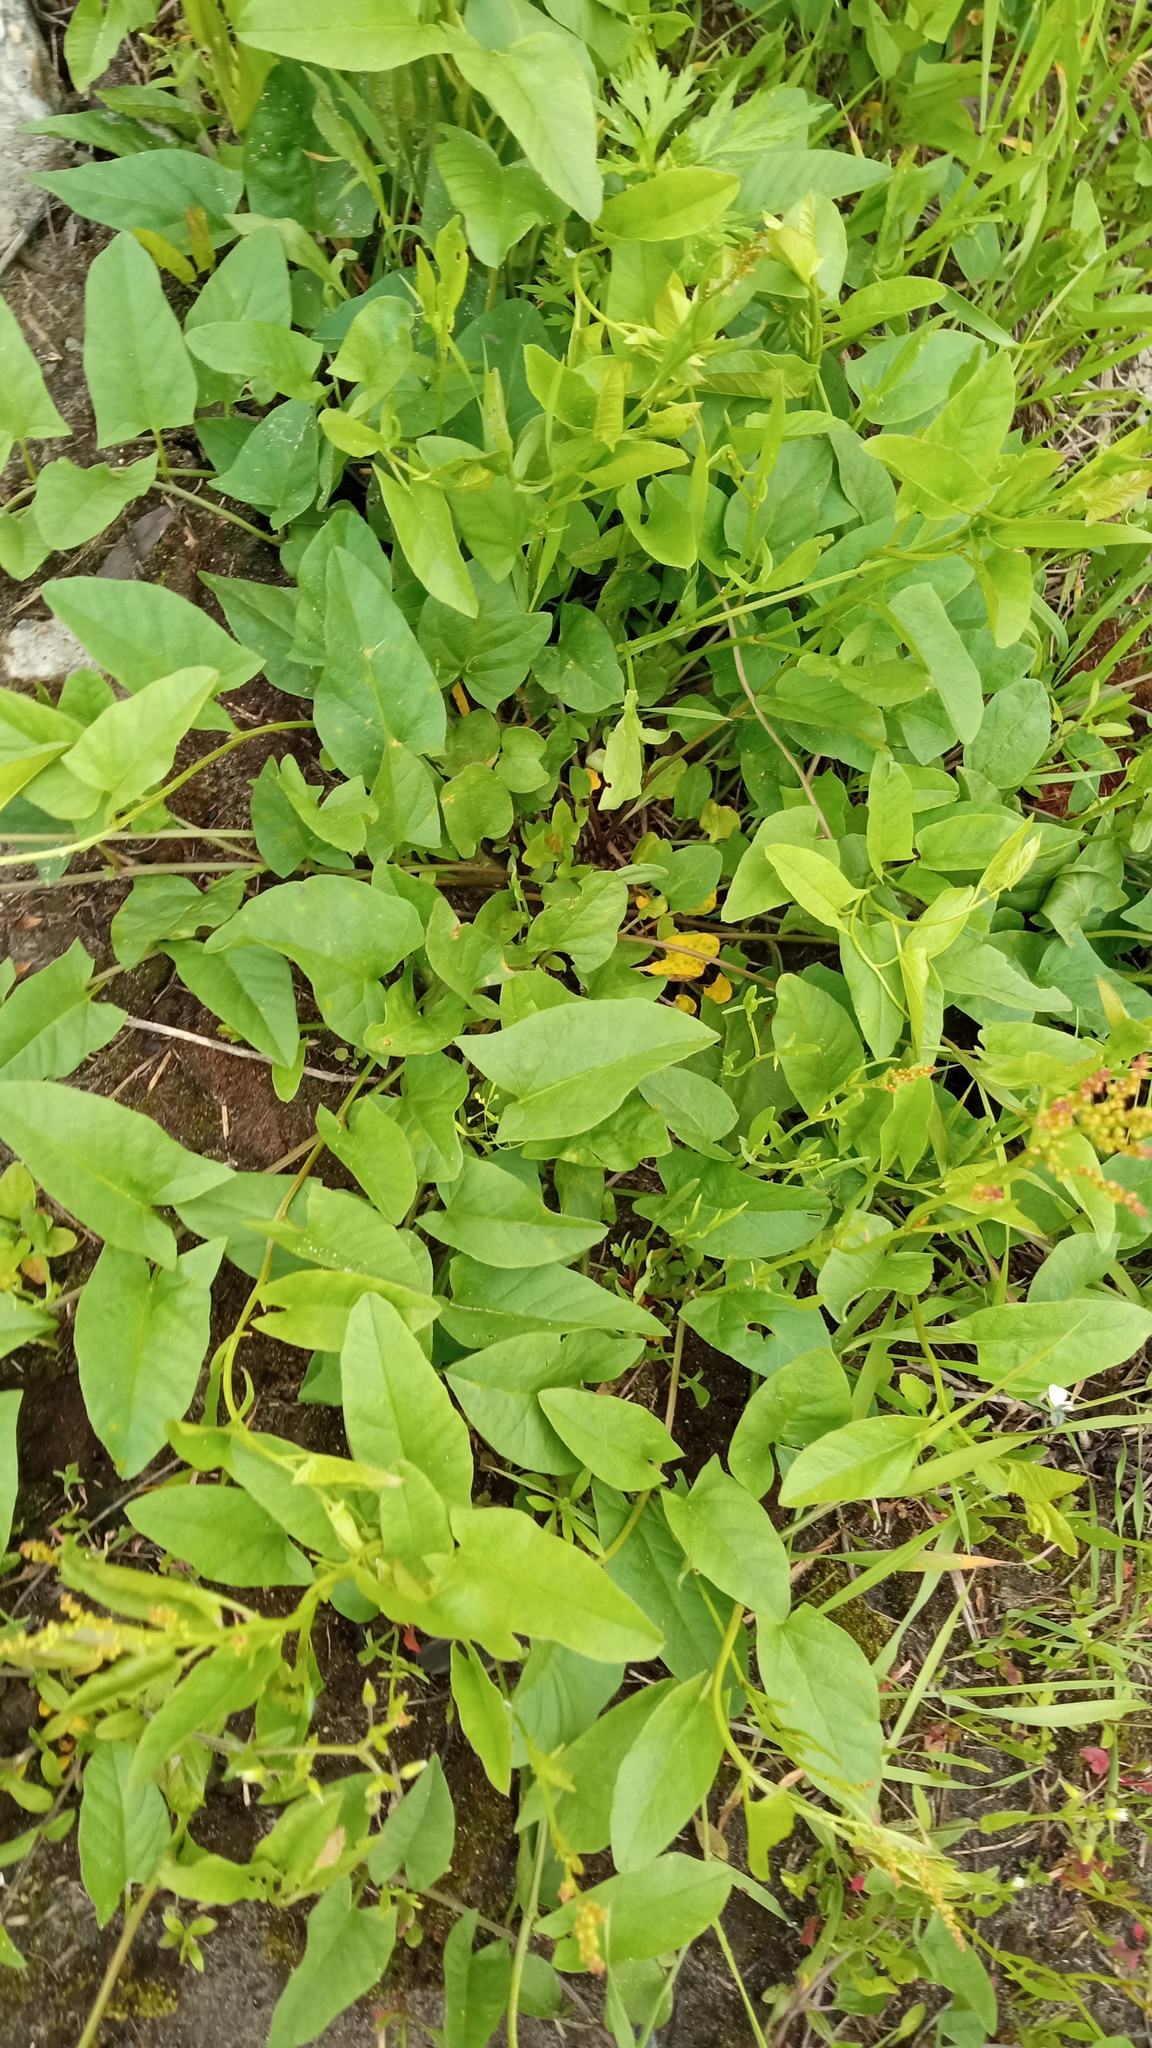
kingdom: Plantae
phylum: Tracheophyta
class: Magnoliopsida
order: Solanales
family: Convolvulaceae
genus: Convolvulus
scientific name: Convolvulus arvensis
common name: Field bindweed
